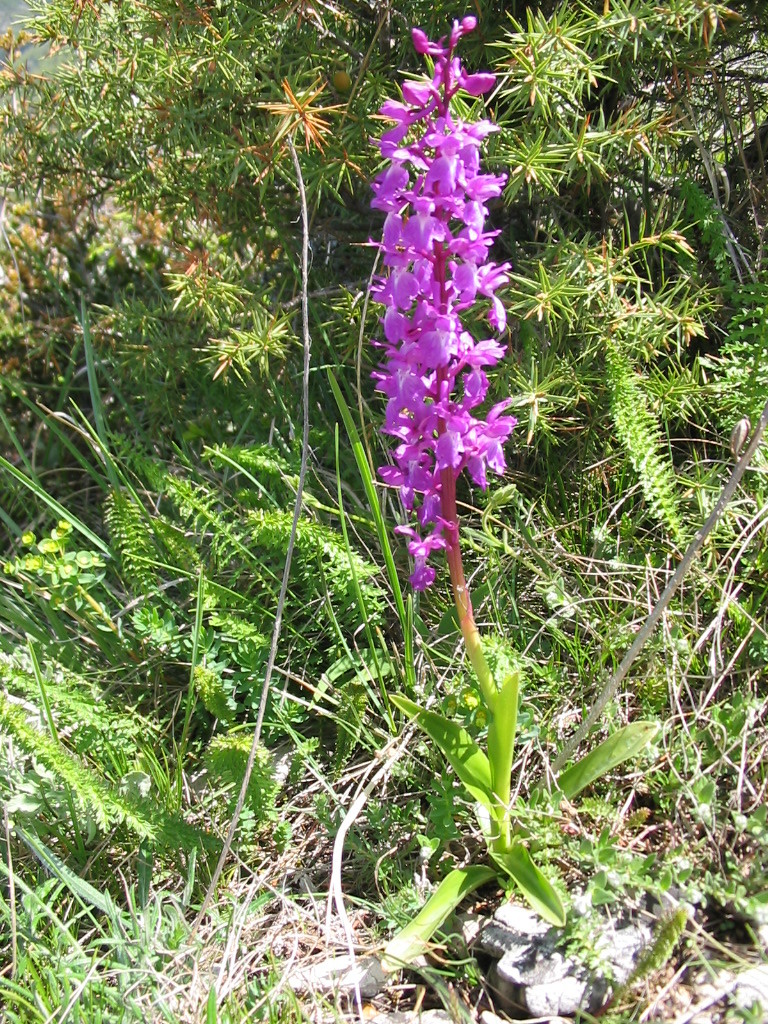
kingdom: Plantae
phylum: Tracheophyta
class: Liliopsida
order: Asparagales
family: Orchidaceae
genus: Orchis
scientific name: Orchis mascula
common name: Early-purple orchid
